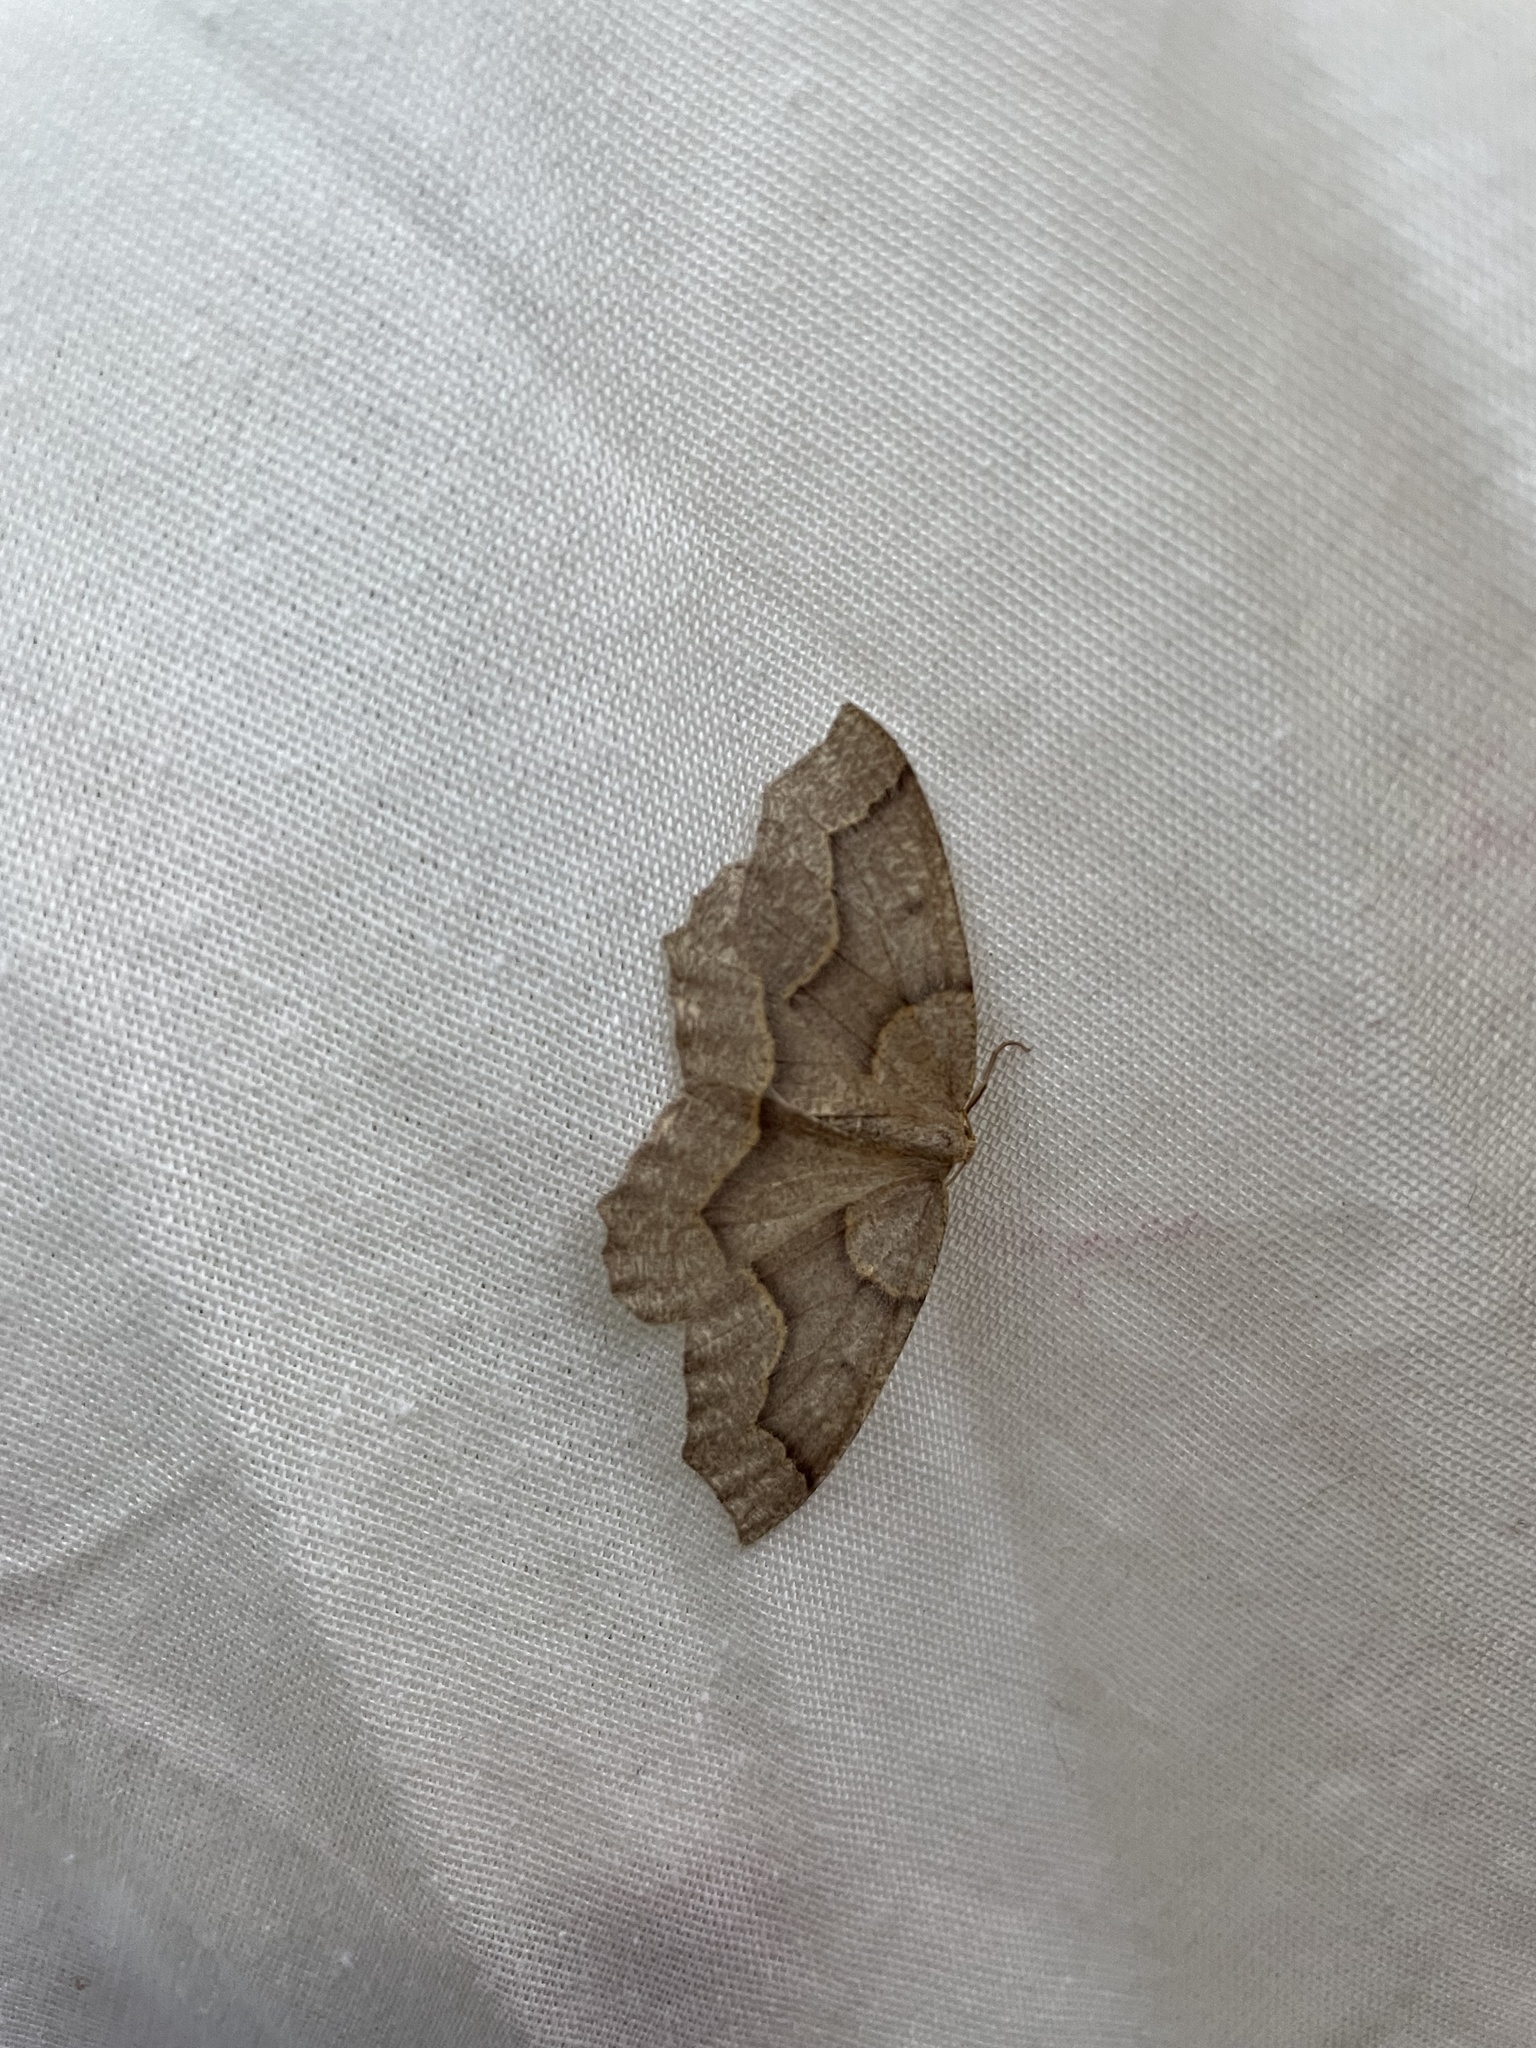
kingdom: Animalia
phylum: Arthropoda
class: Insecta
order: Lepidoptera
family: Geometridae
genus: Lambdina
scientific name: Lambdina fiscellaria
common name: Hemlock looper
